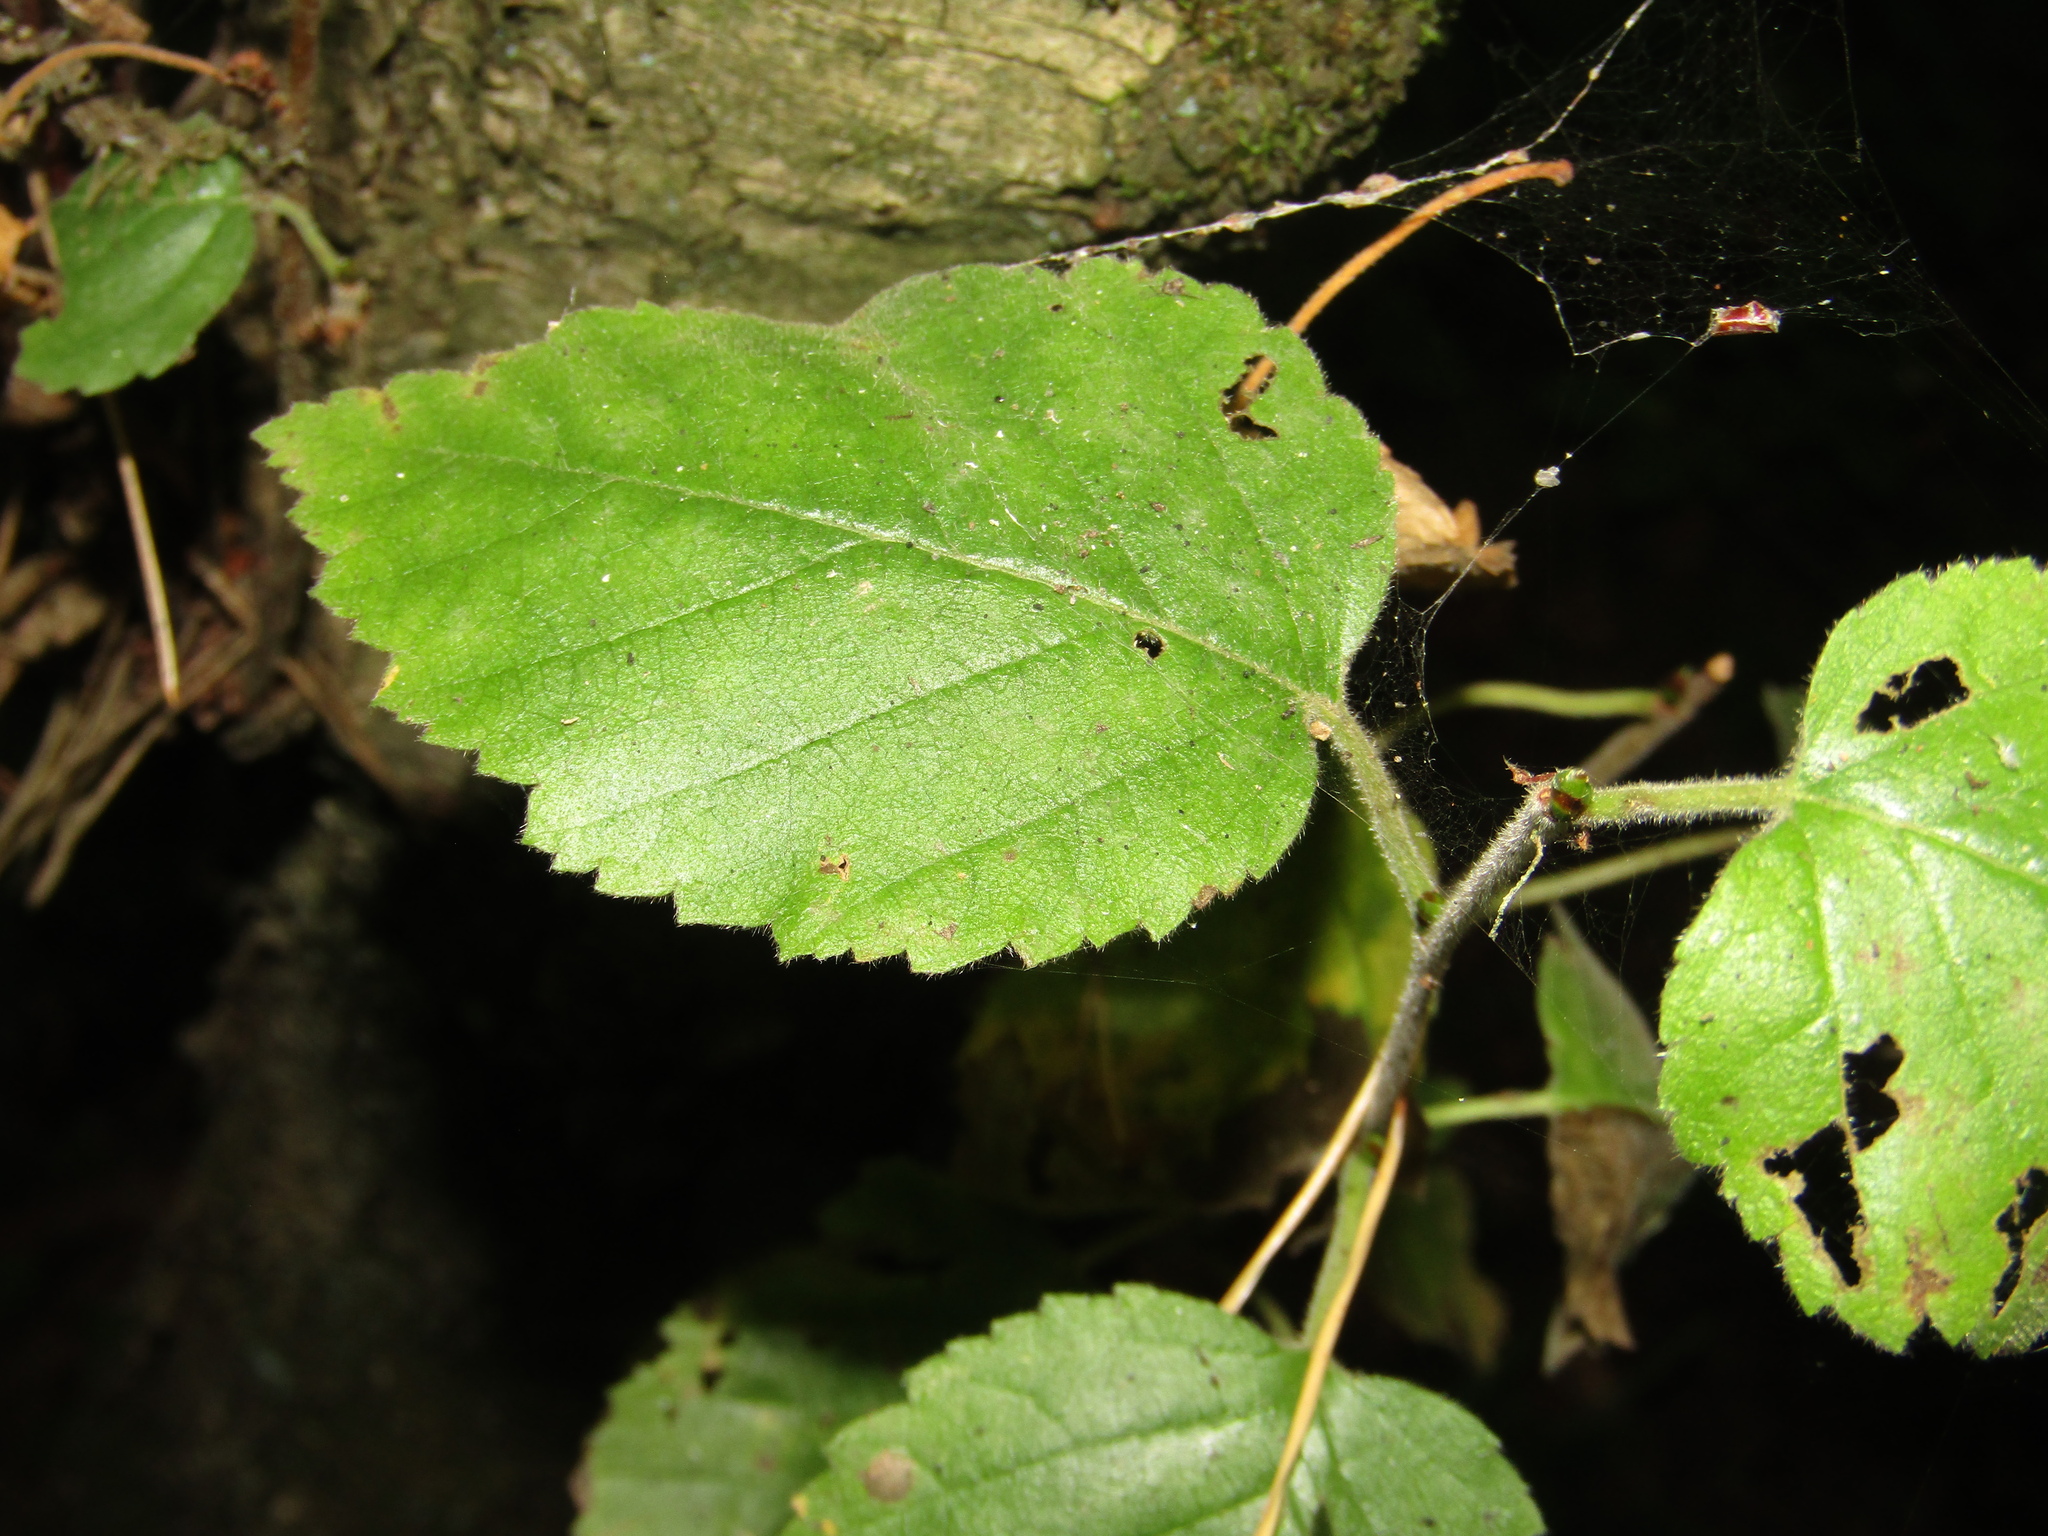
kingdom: Plantae
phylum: Tracheophyta
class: Magnoliopsida
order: Fagales
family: Betulaceae
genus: Betula
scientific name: Betula pubescens
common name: Downy birch
